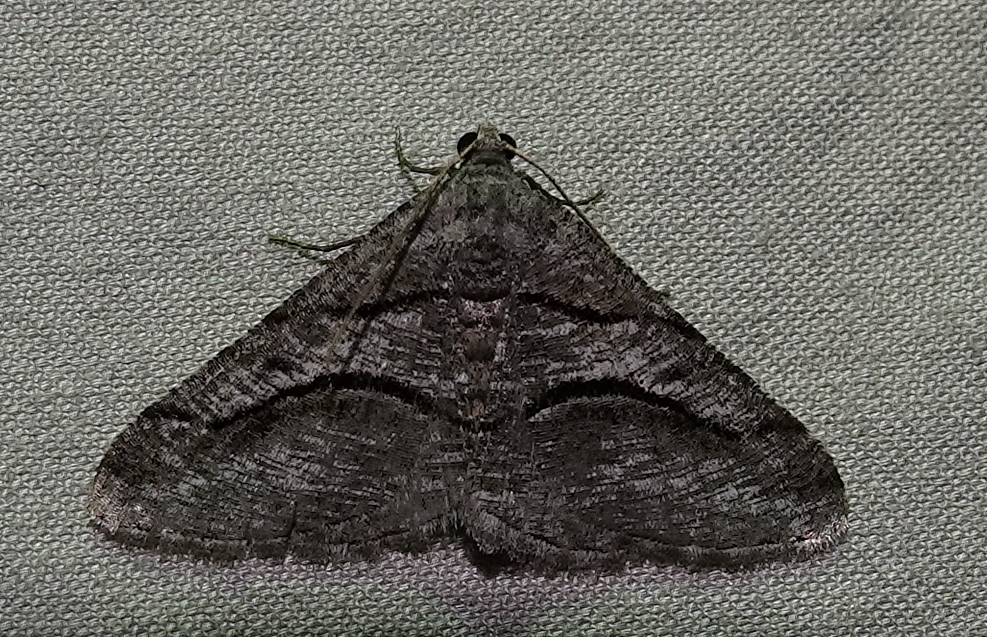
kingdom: Animalia
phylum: Arthropoda
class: Insecta
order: Lepidoptera
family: Geometridae
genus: Digrammia
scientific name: Digrammia continuata
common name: Curve-lined angle
